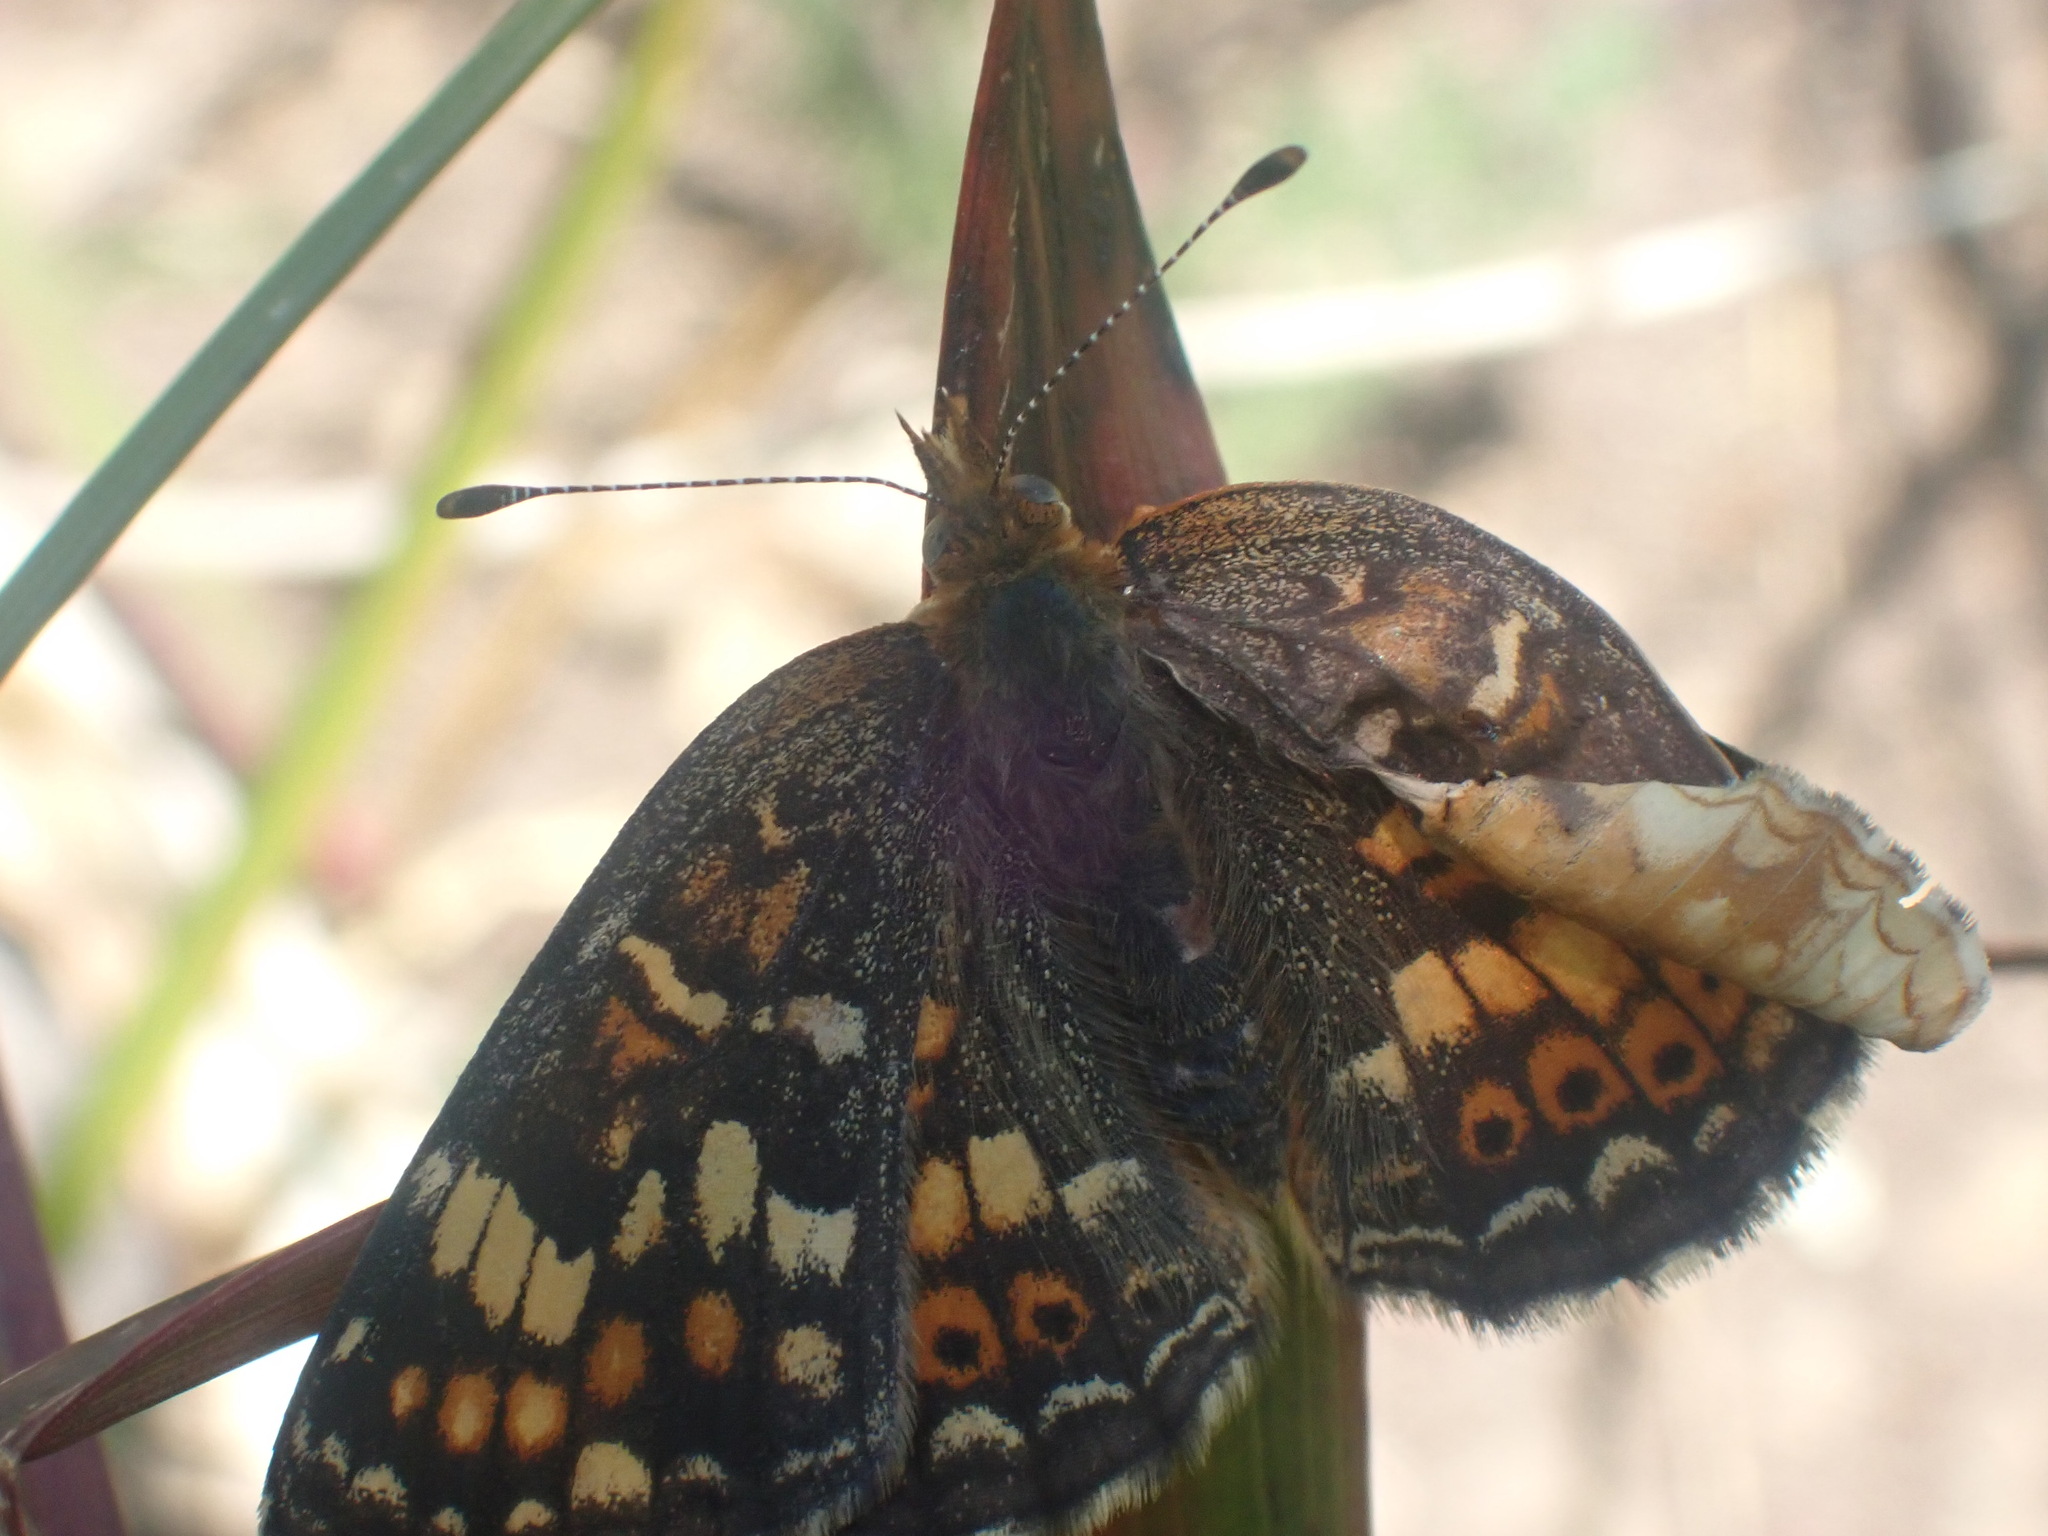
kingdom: Animalia
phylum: Arthropoda
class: Insecta
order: Lepidoptera
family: Nymphalidae
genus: Phyciodes
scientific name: Phyciodes tharos
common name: Pearl crescent
